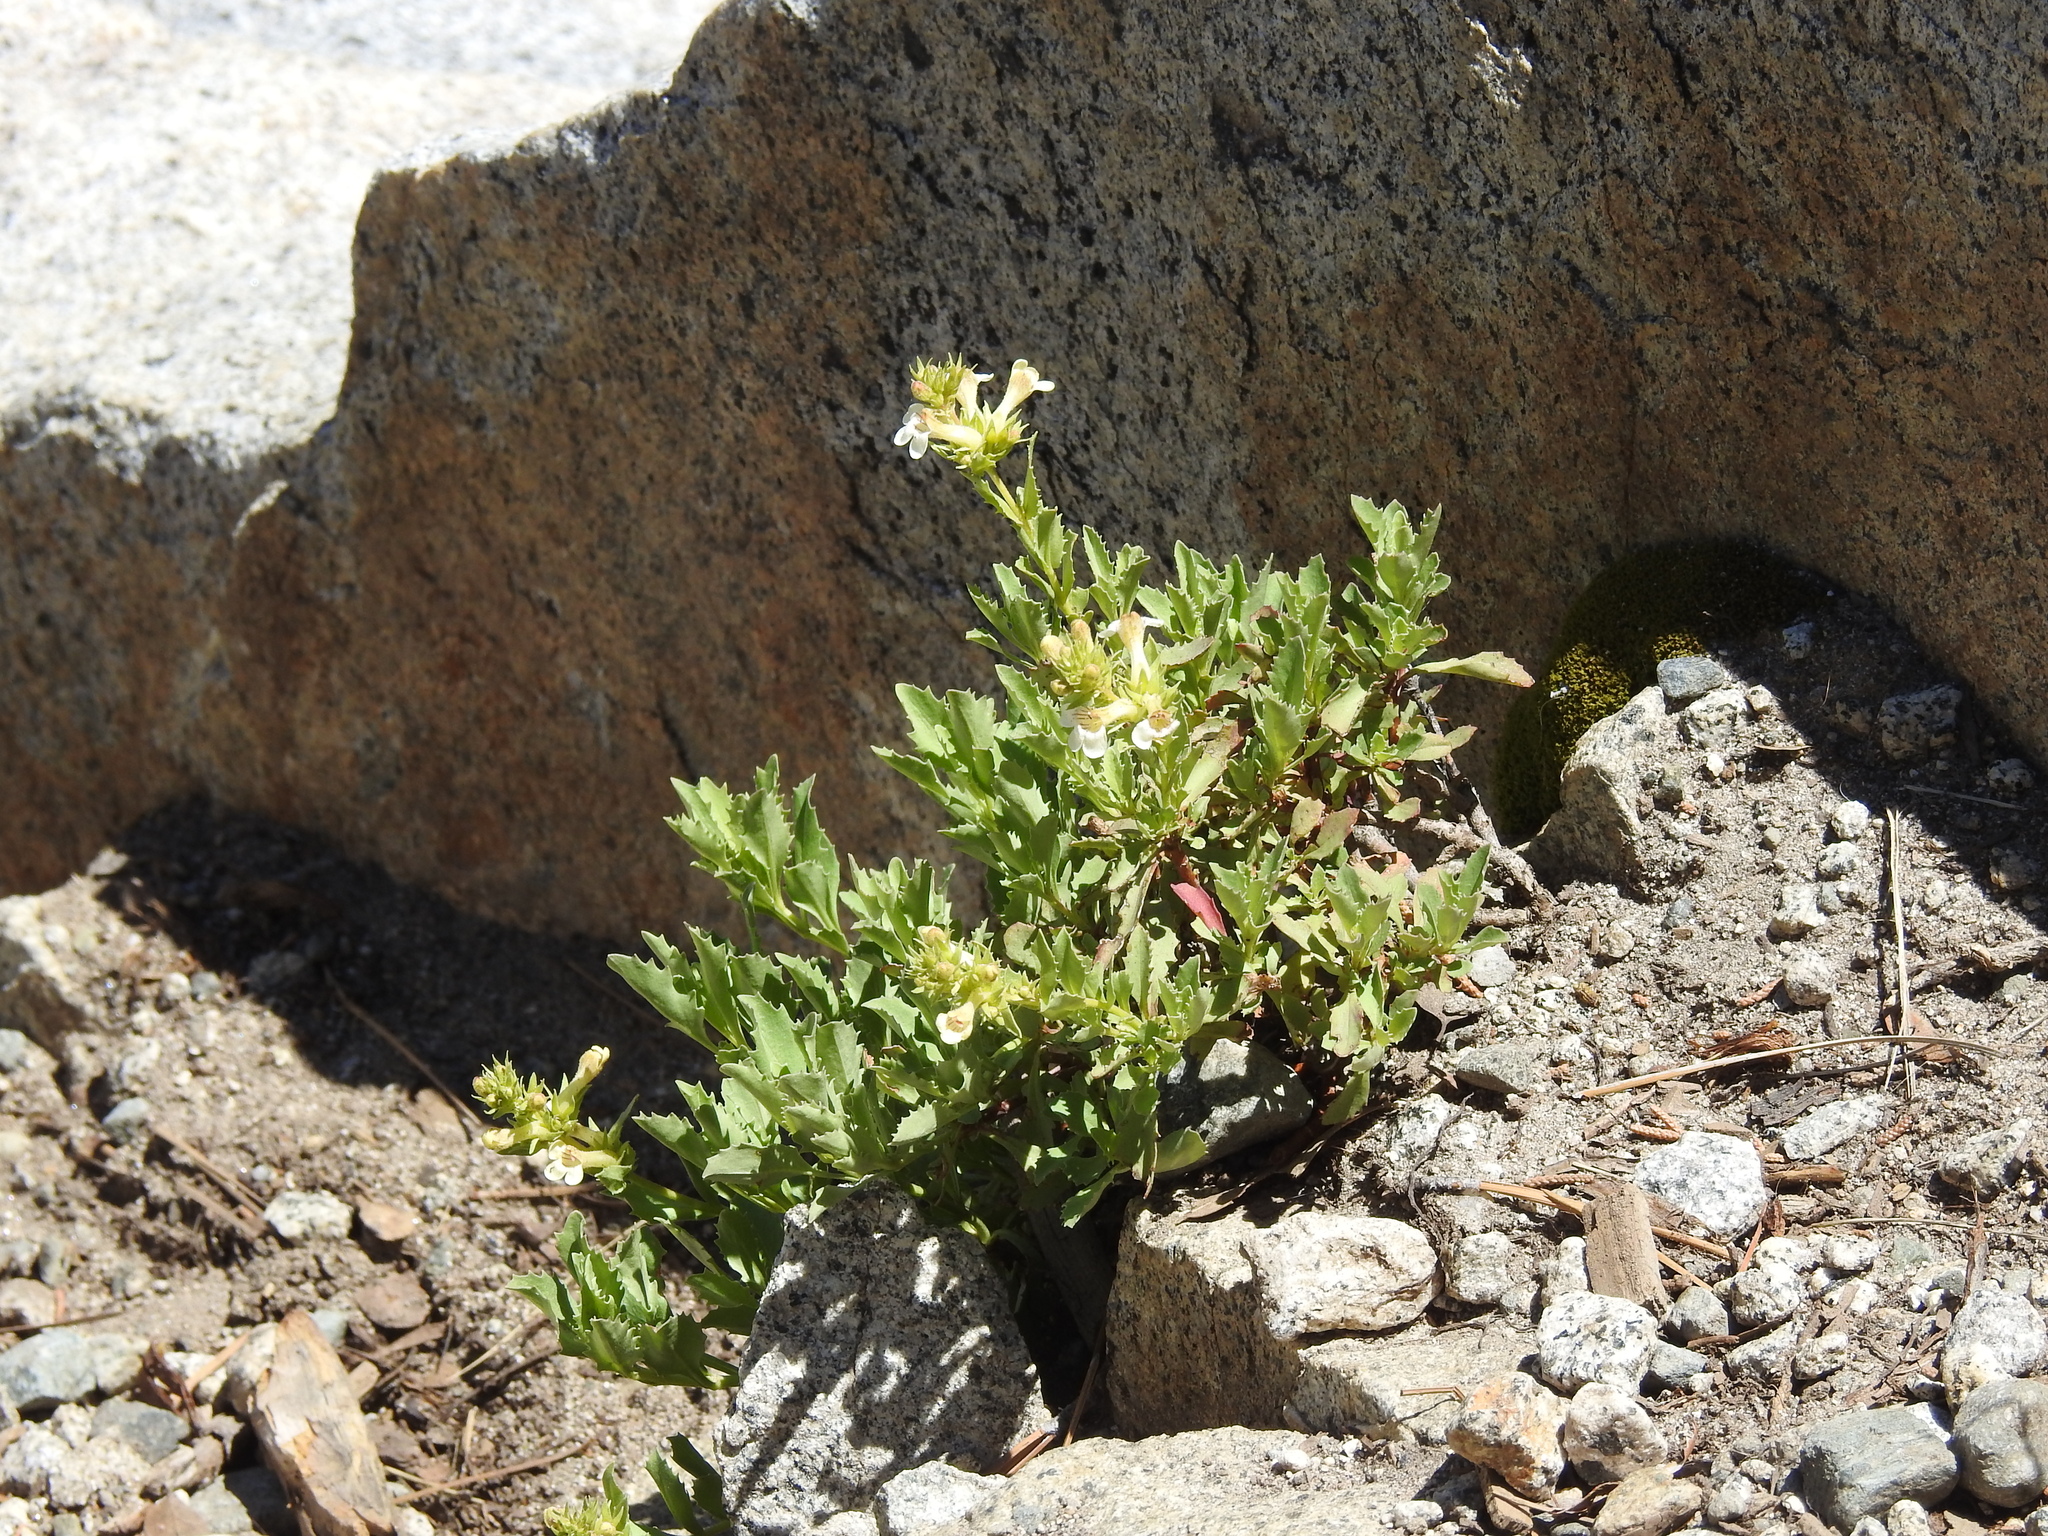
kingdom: Plantae
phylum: Tracheophyta
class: Magnoliopsida
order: Lamiales
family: Plantaginaceae
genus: Penstemon
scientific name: Penstemon deustus
